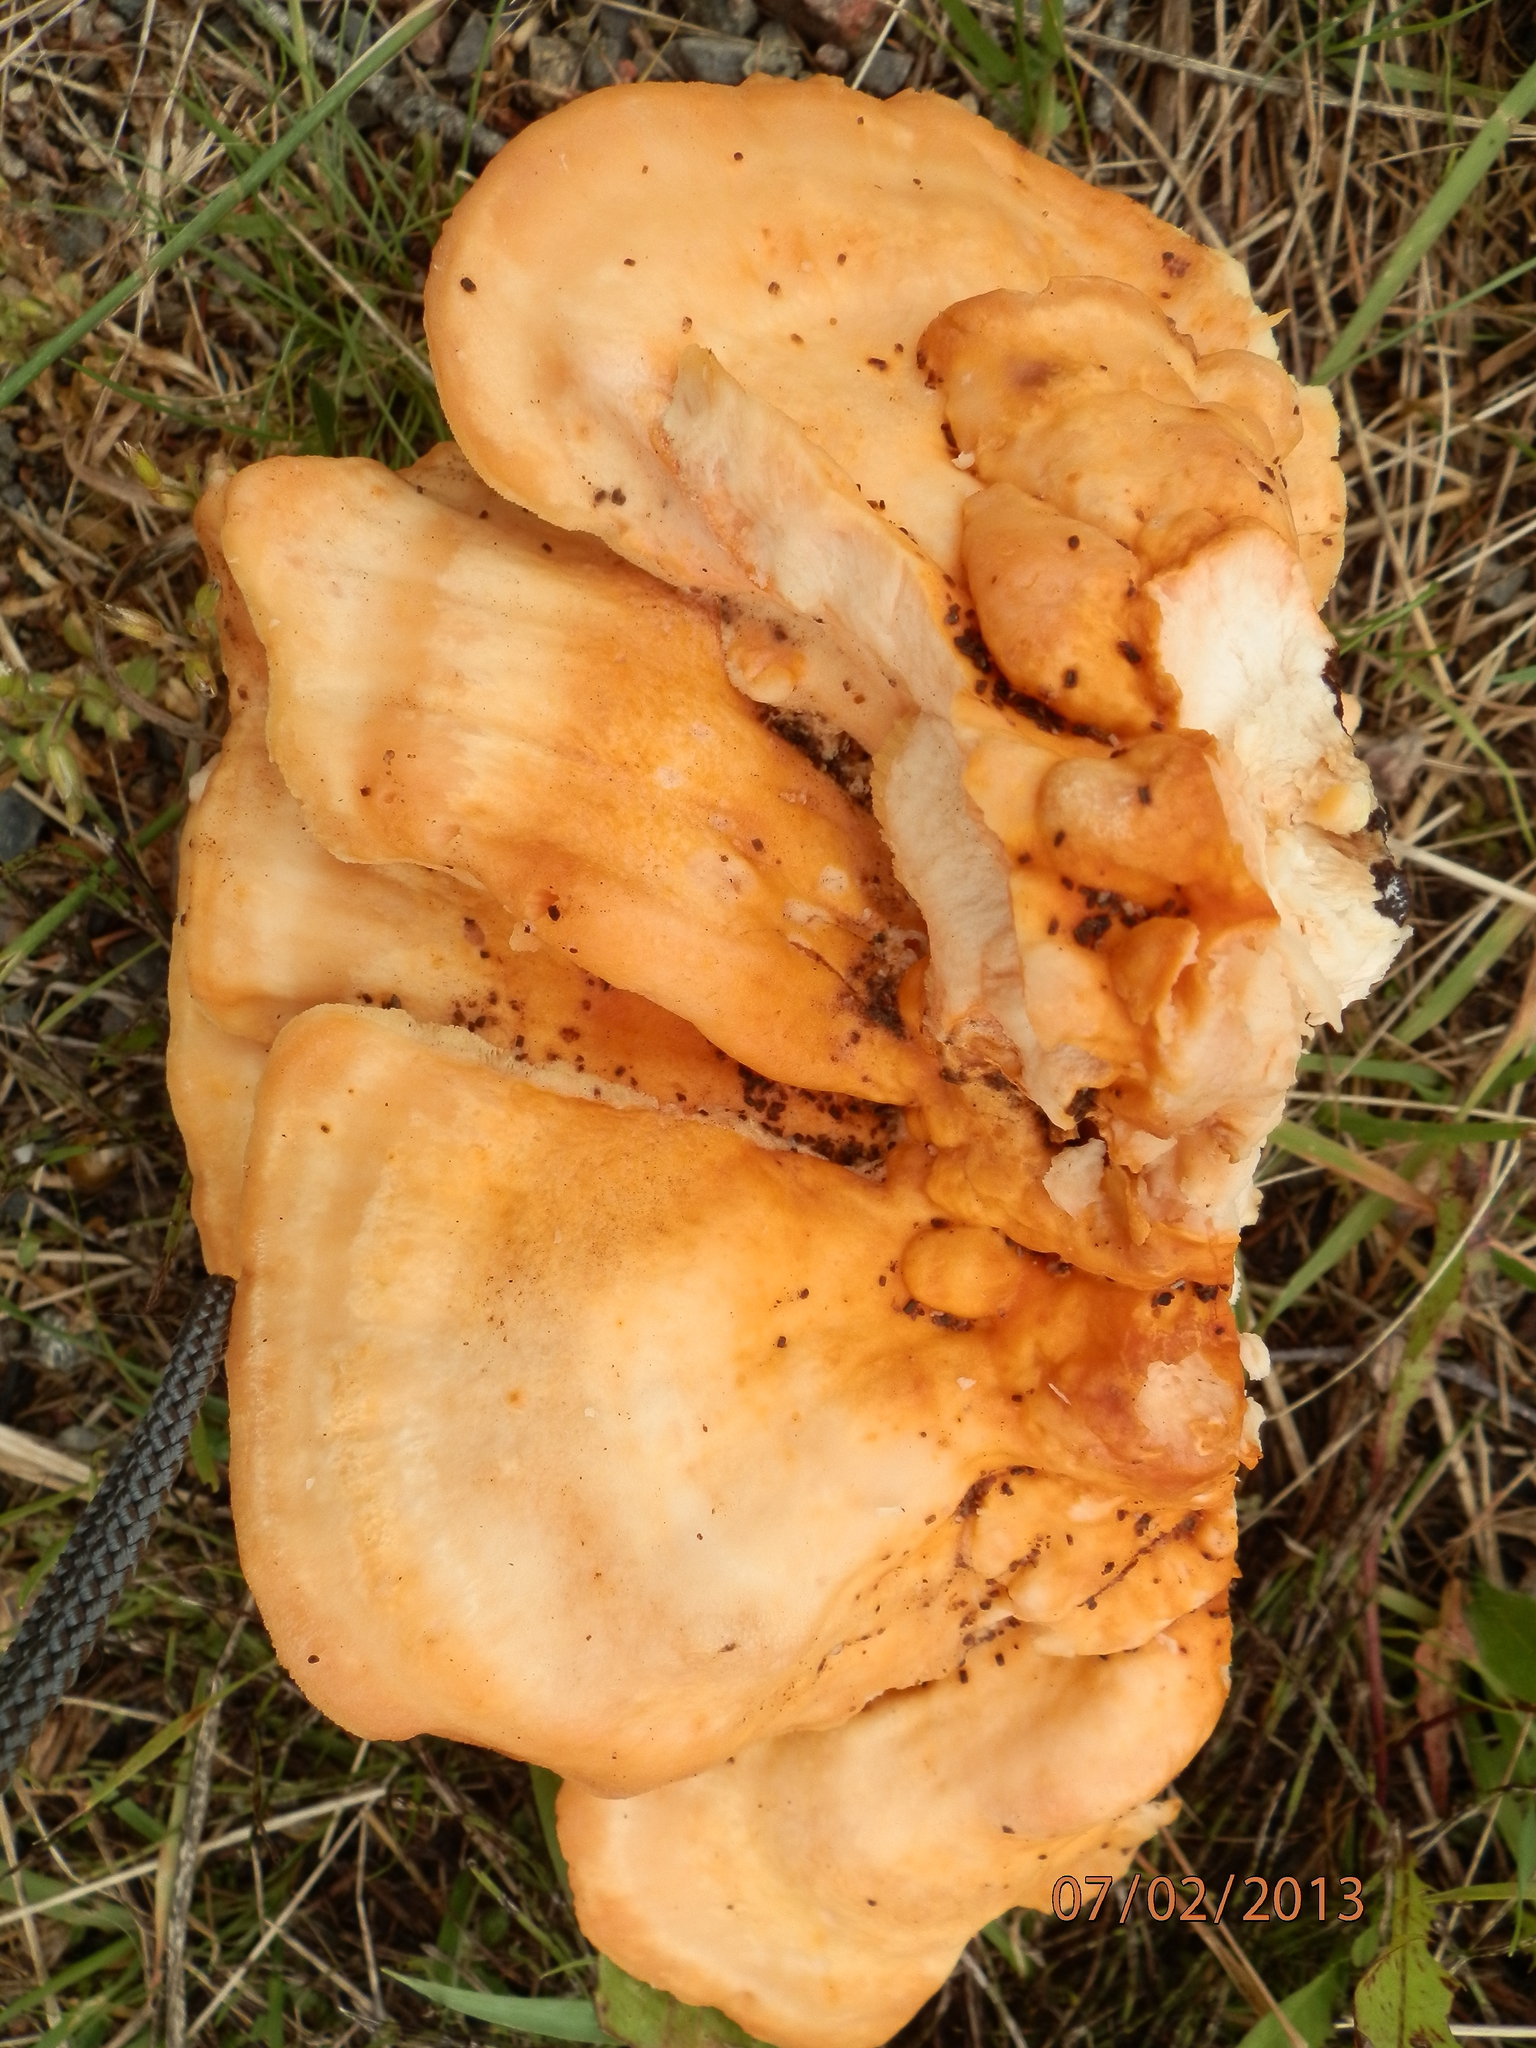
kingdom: Fungi
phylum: Basidiomycota
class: Agaricomycetes
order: Polyporales
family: Laetiporaceae
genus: Laetiporus
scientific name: Laetiporus sulphureus
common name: Chicken of the woods
